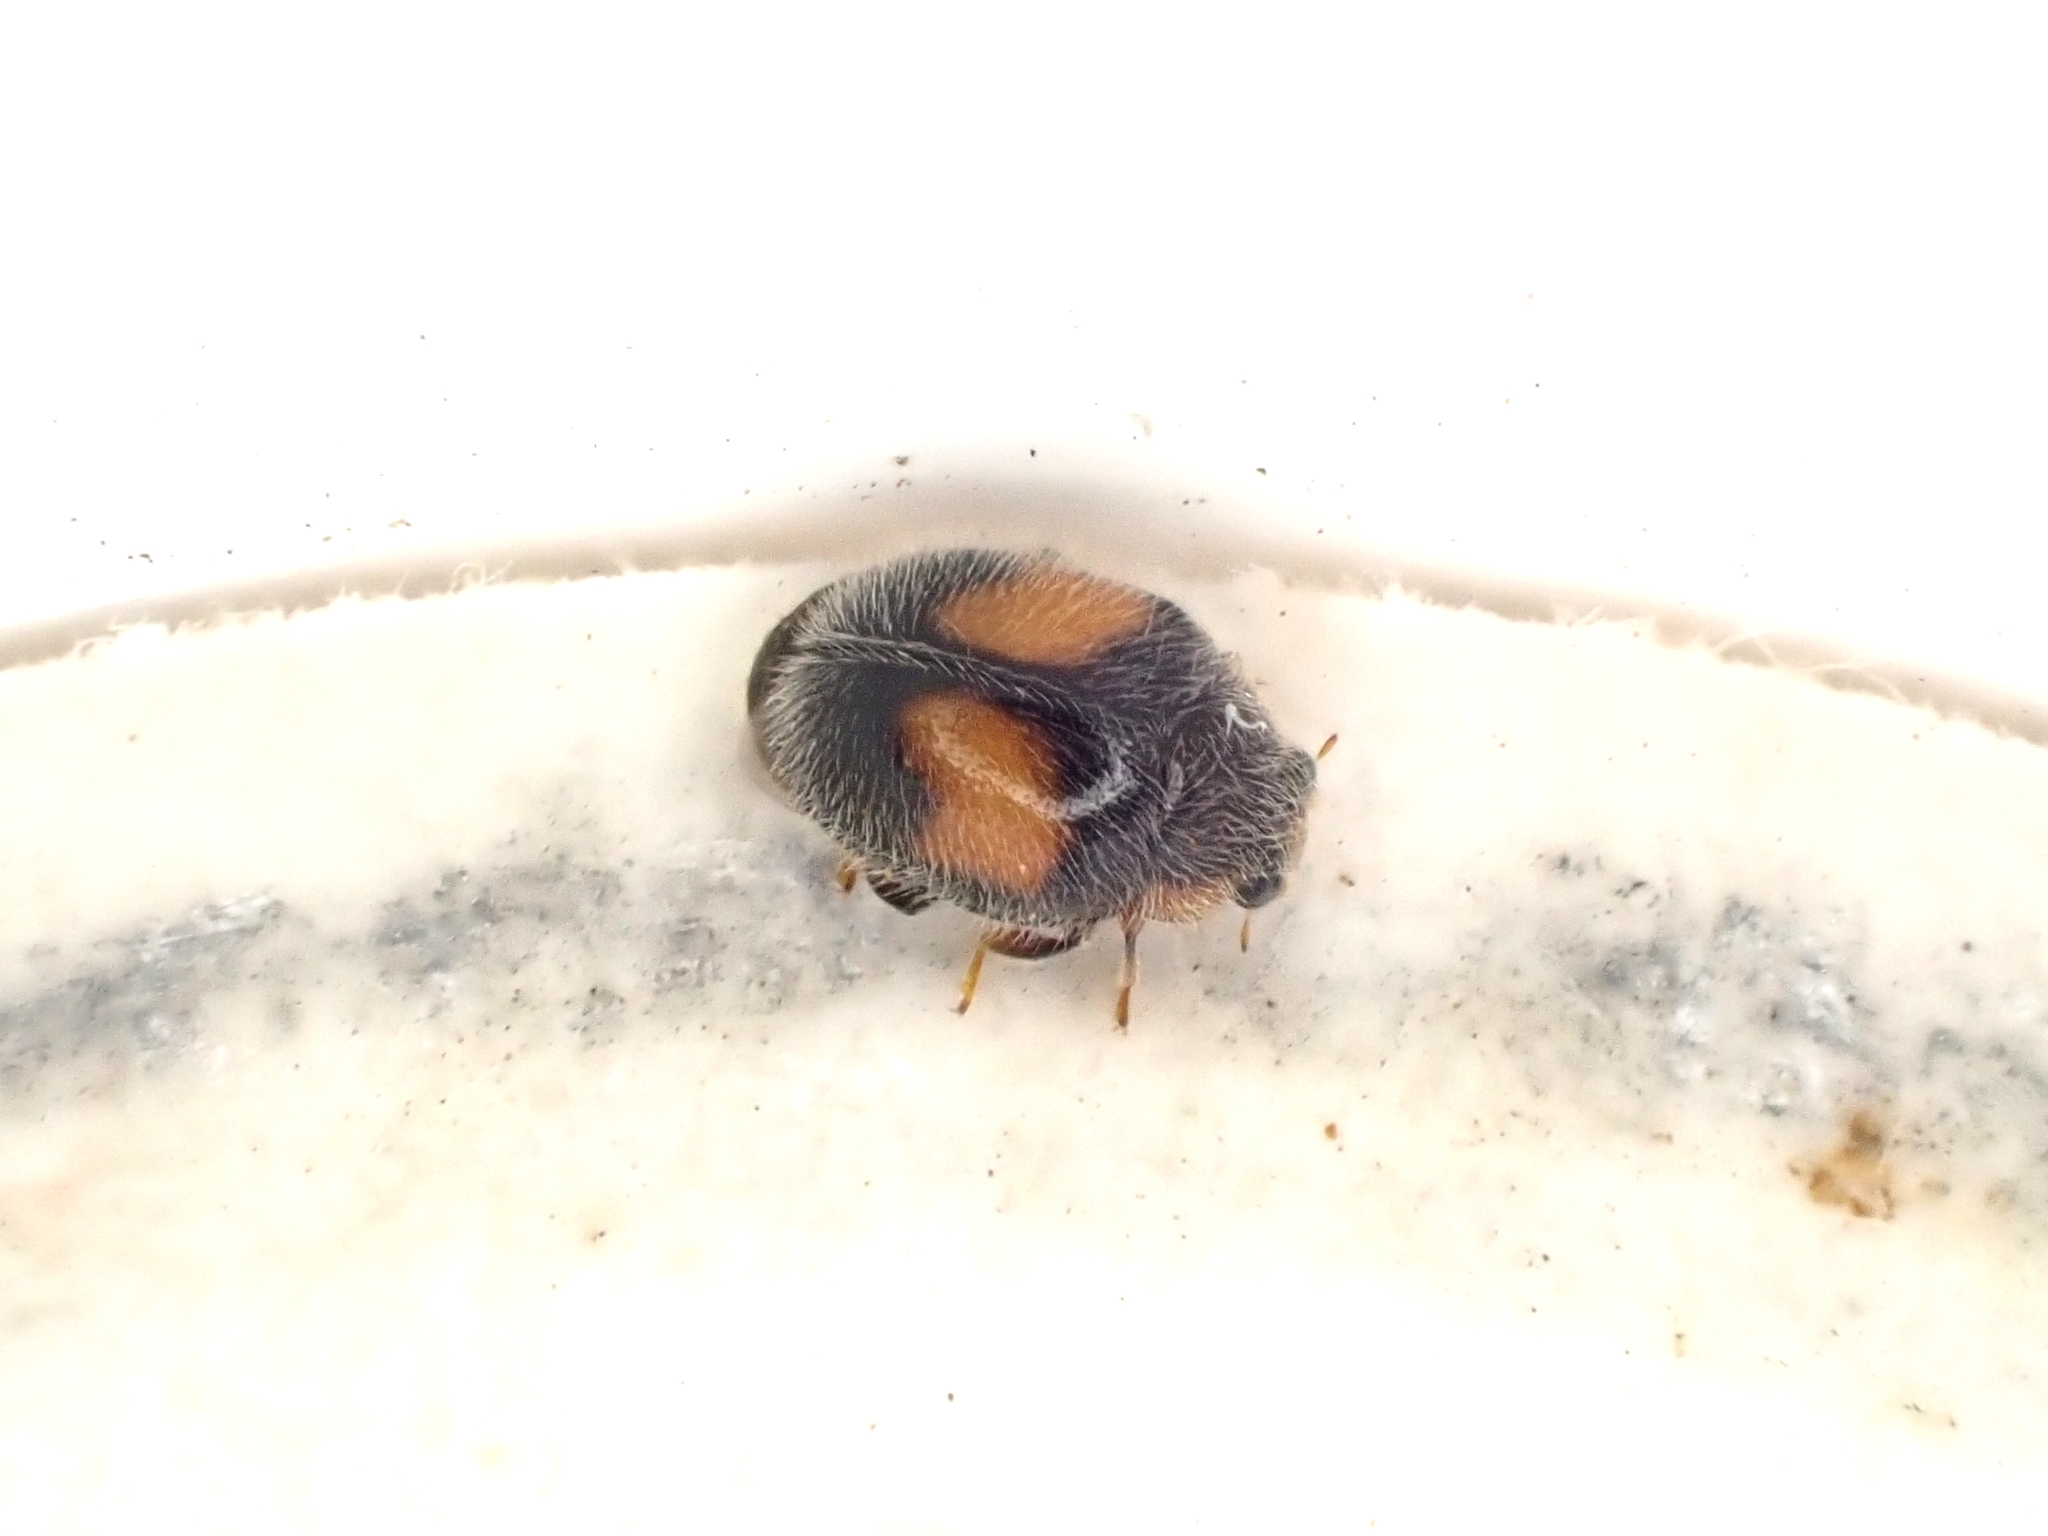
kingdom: Animalia
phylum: Arthropoda
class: Insecta
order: Coleoptera
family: Coccinellidae
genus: Scymnus
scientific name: Scymnus notescens
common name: Minute two-spotted ladybird beetle
